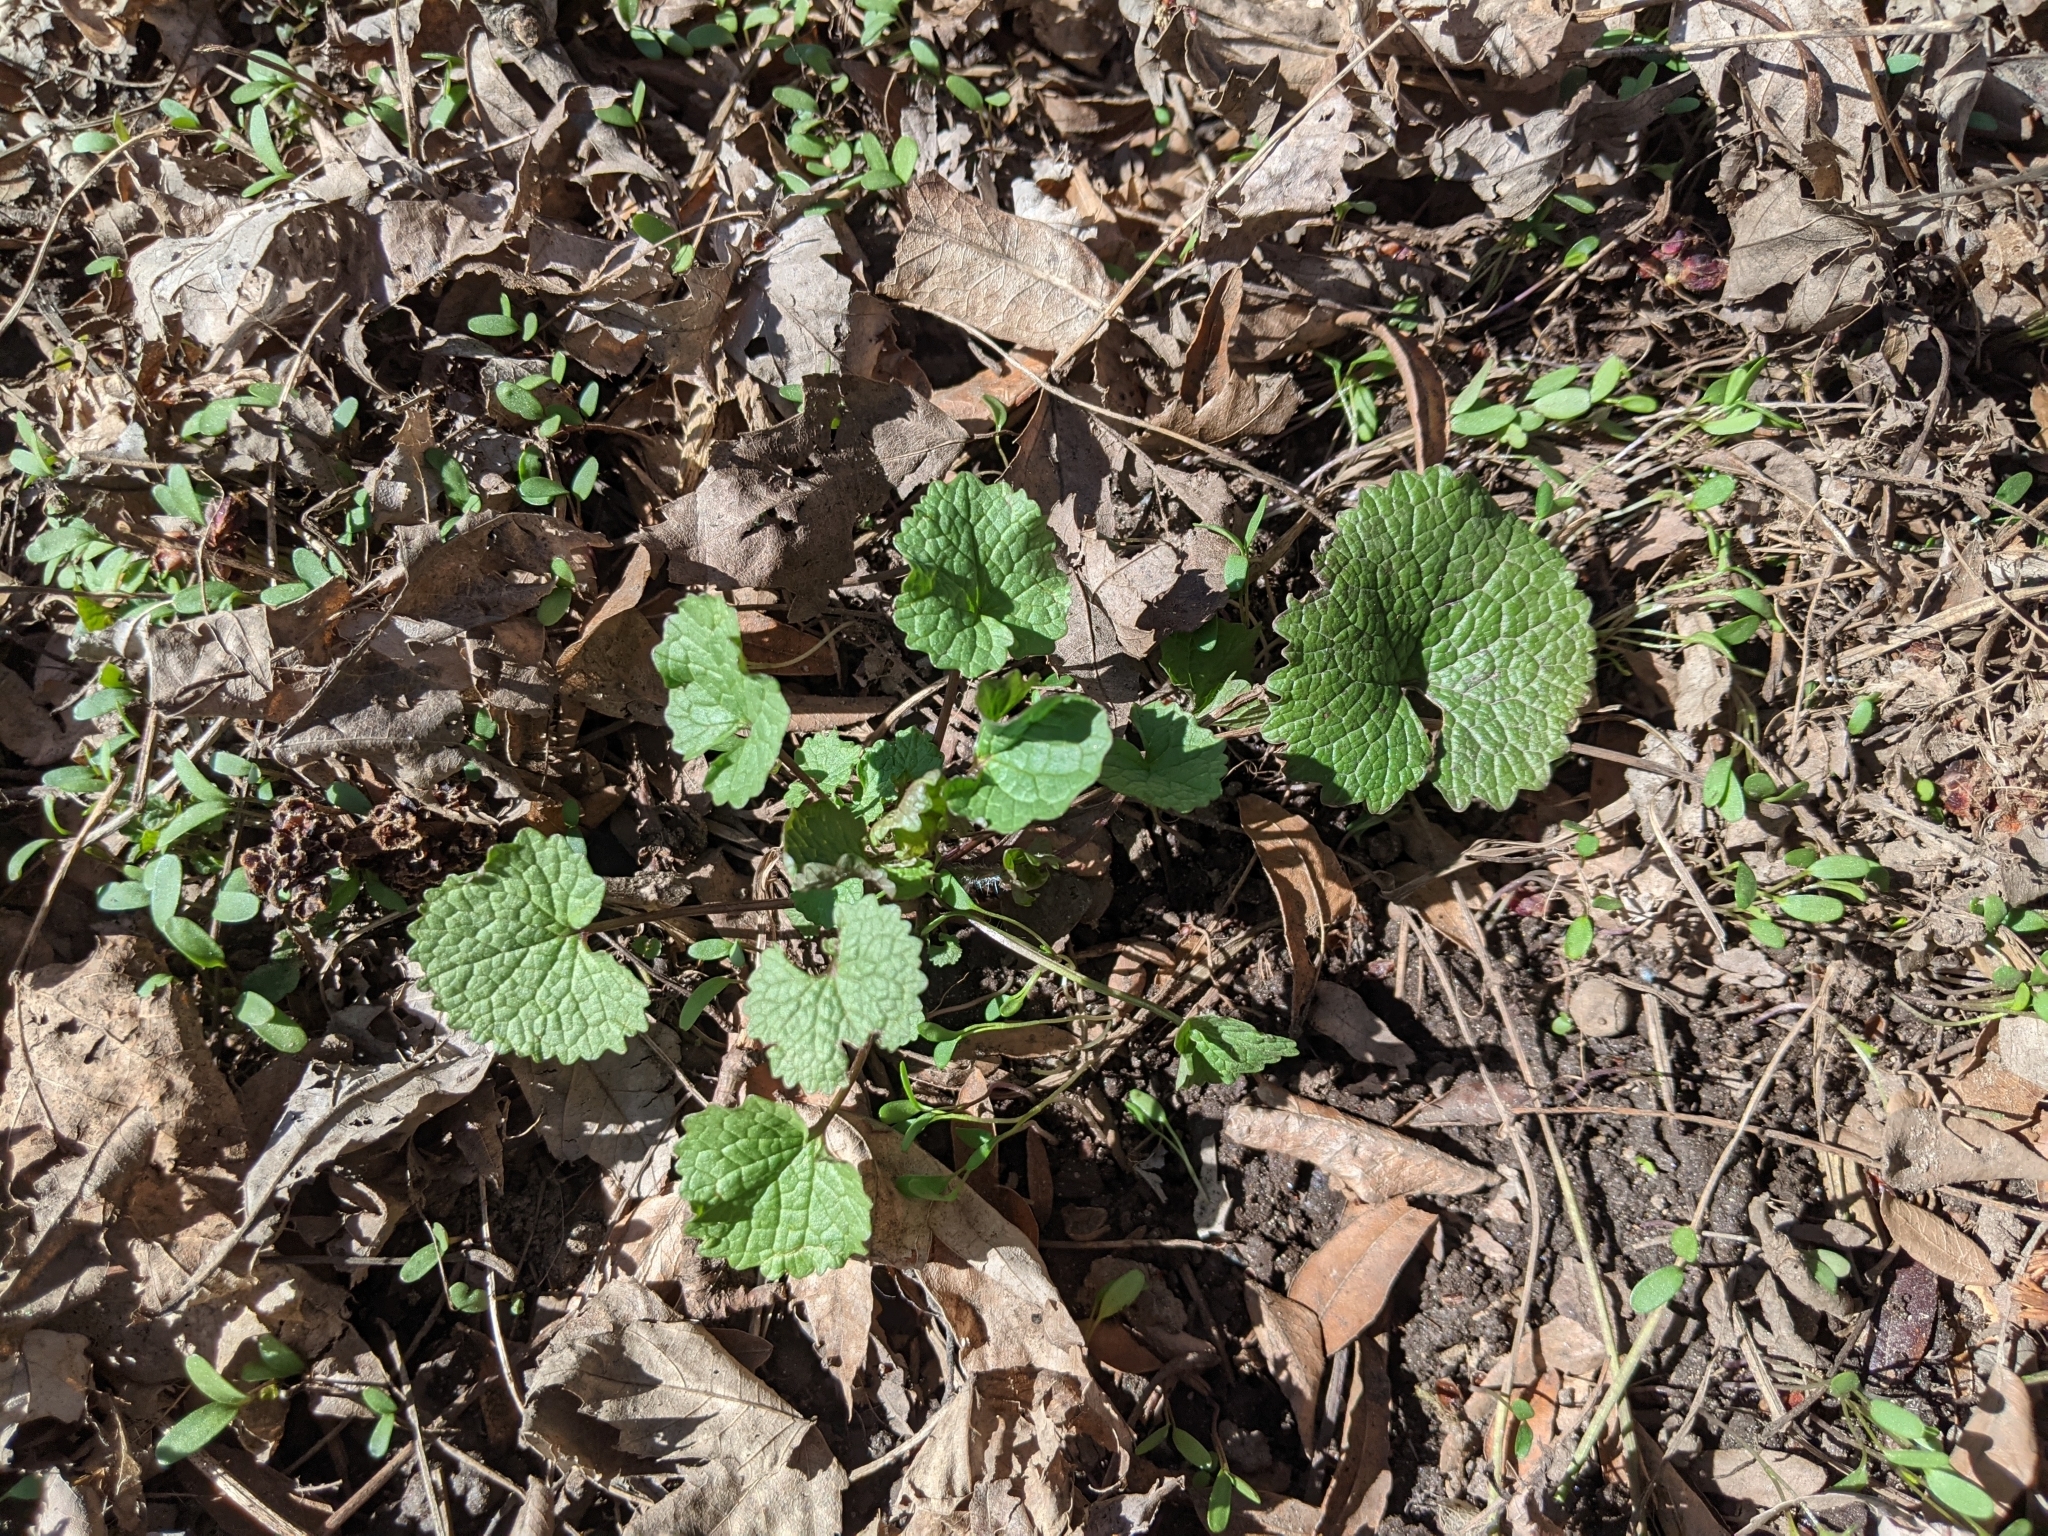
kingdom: Plantae
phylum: Tracheophyta
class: Magnoliopsida
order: Brassicales
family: Brassicaceae
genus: Alliaria
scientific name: Alliaria petiolata
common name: Garlic mustard
